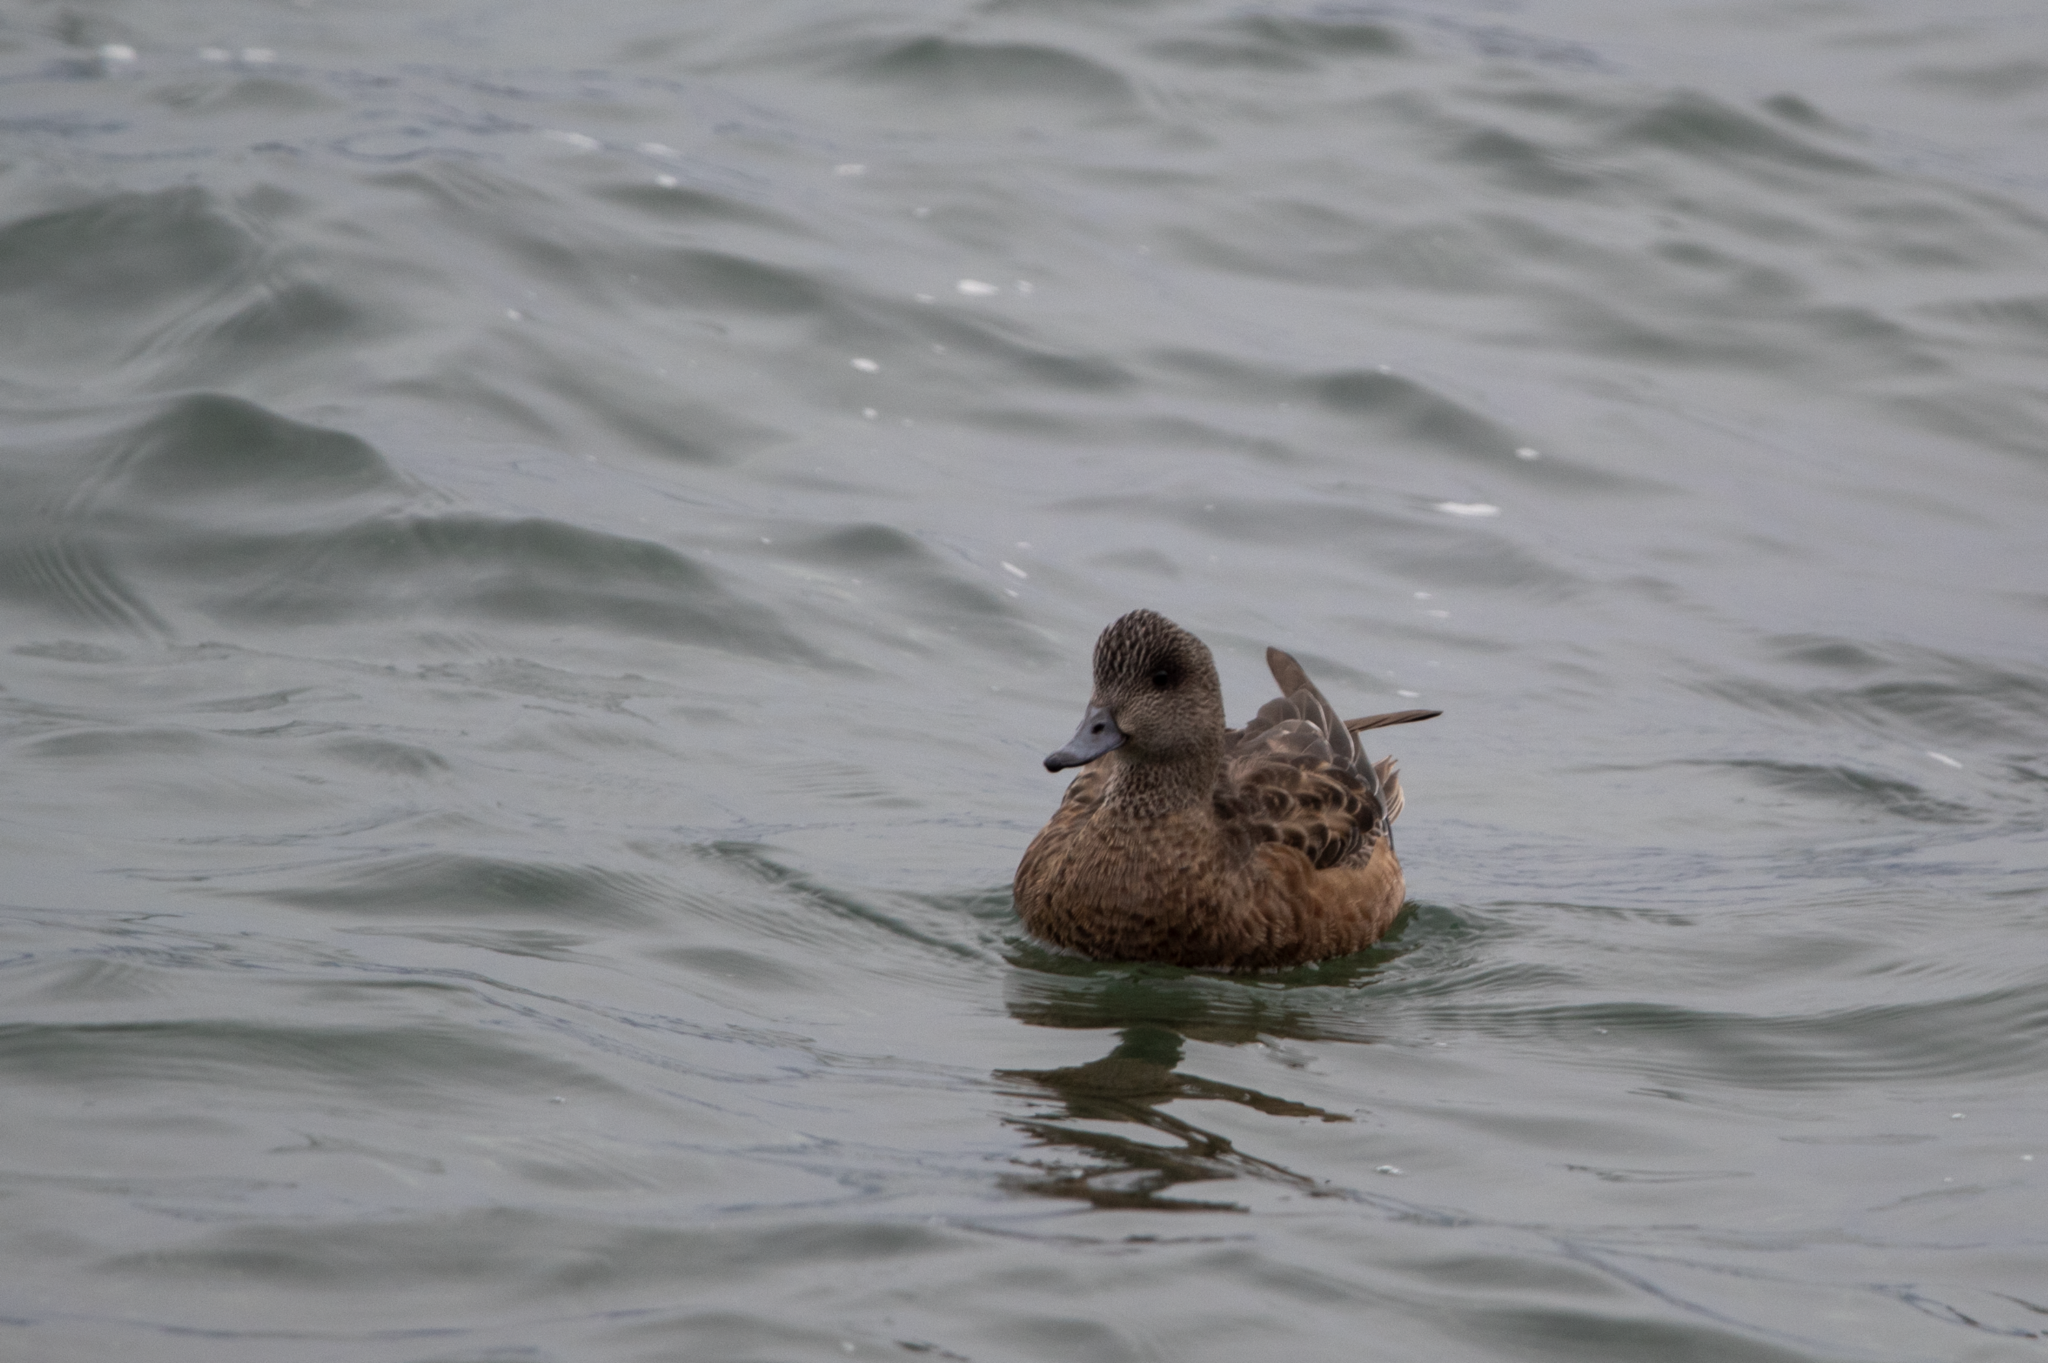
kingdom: Animalia
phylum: Chordata
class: Aves
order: Anseriformes
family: Anatidae
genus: Mareca
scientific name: Mareca americana
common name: American wigeon
